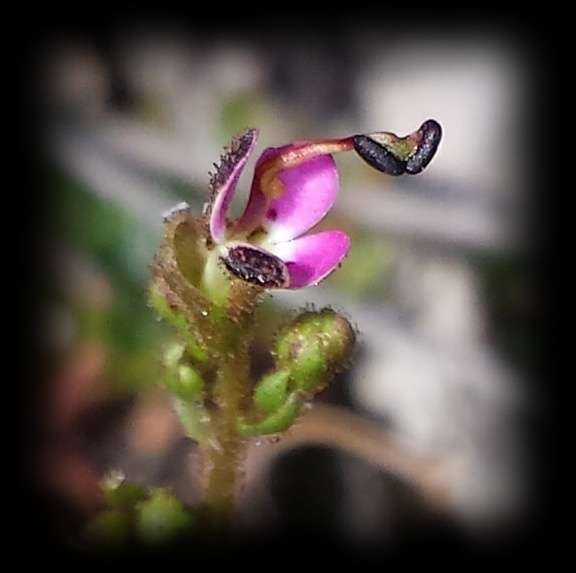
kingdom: Plantae
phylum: Tracheophyta
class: Magnoliopsida
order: Asterales
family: Stylidiaceae
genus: Stylidium
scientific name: Stylidium soboliferum
